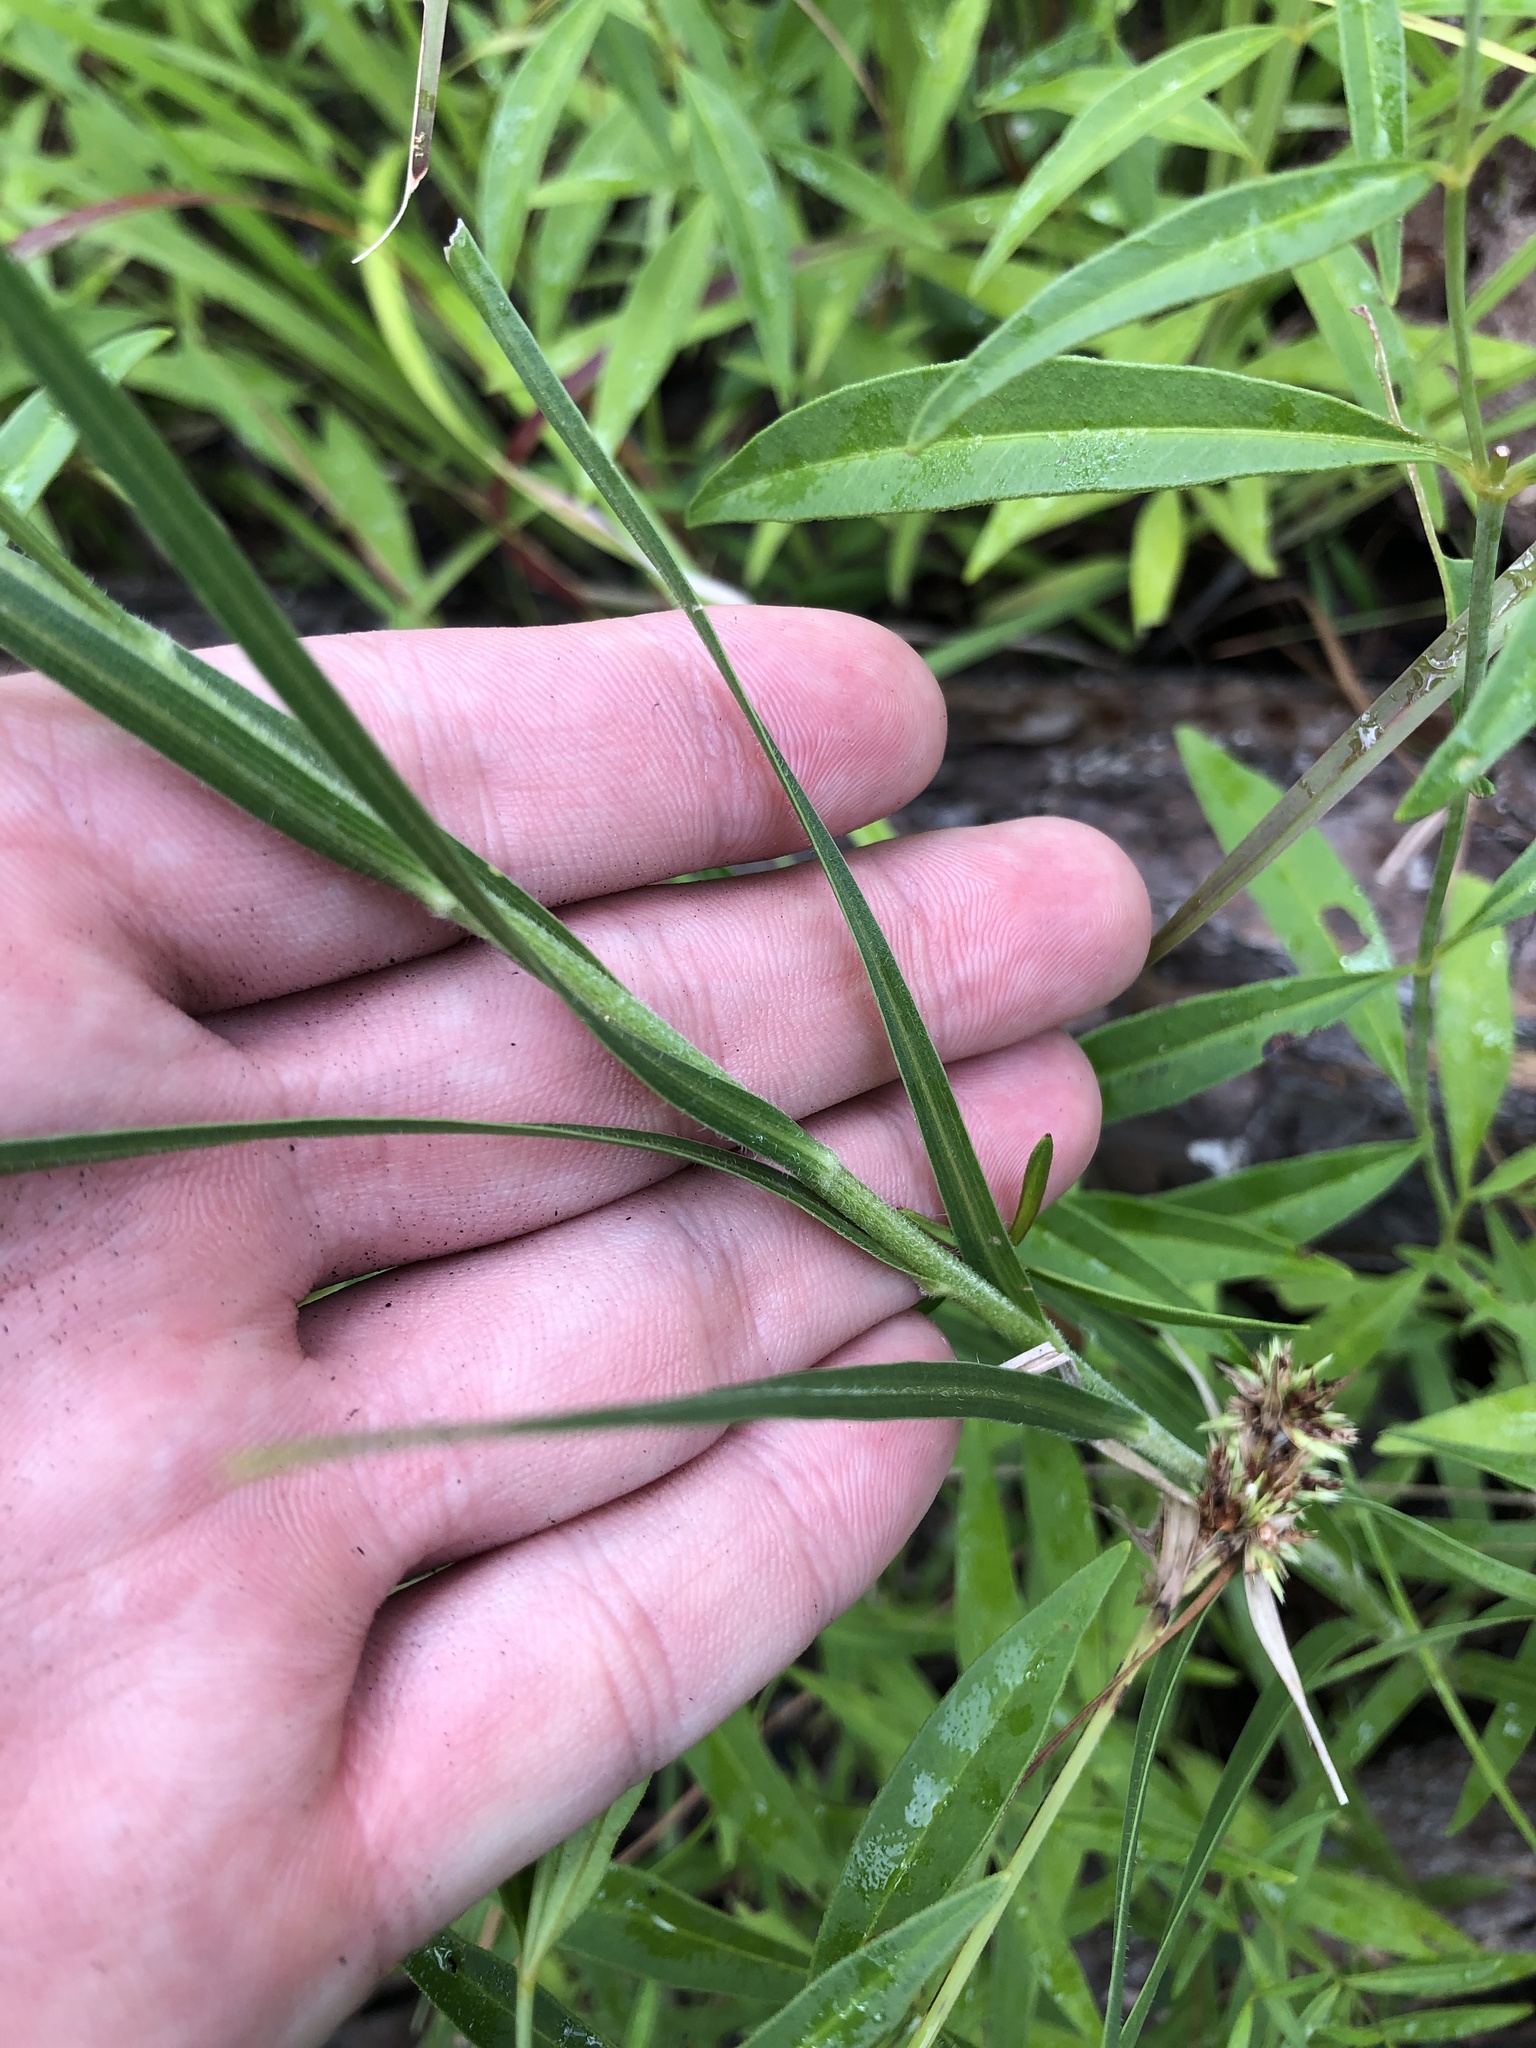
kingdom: Plantae
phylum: Tracheophyta
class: Magnoliopsida
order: Asterales
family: Asteraceae
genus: Liatris
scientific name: Liatris squarrosa
